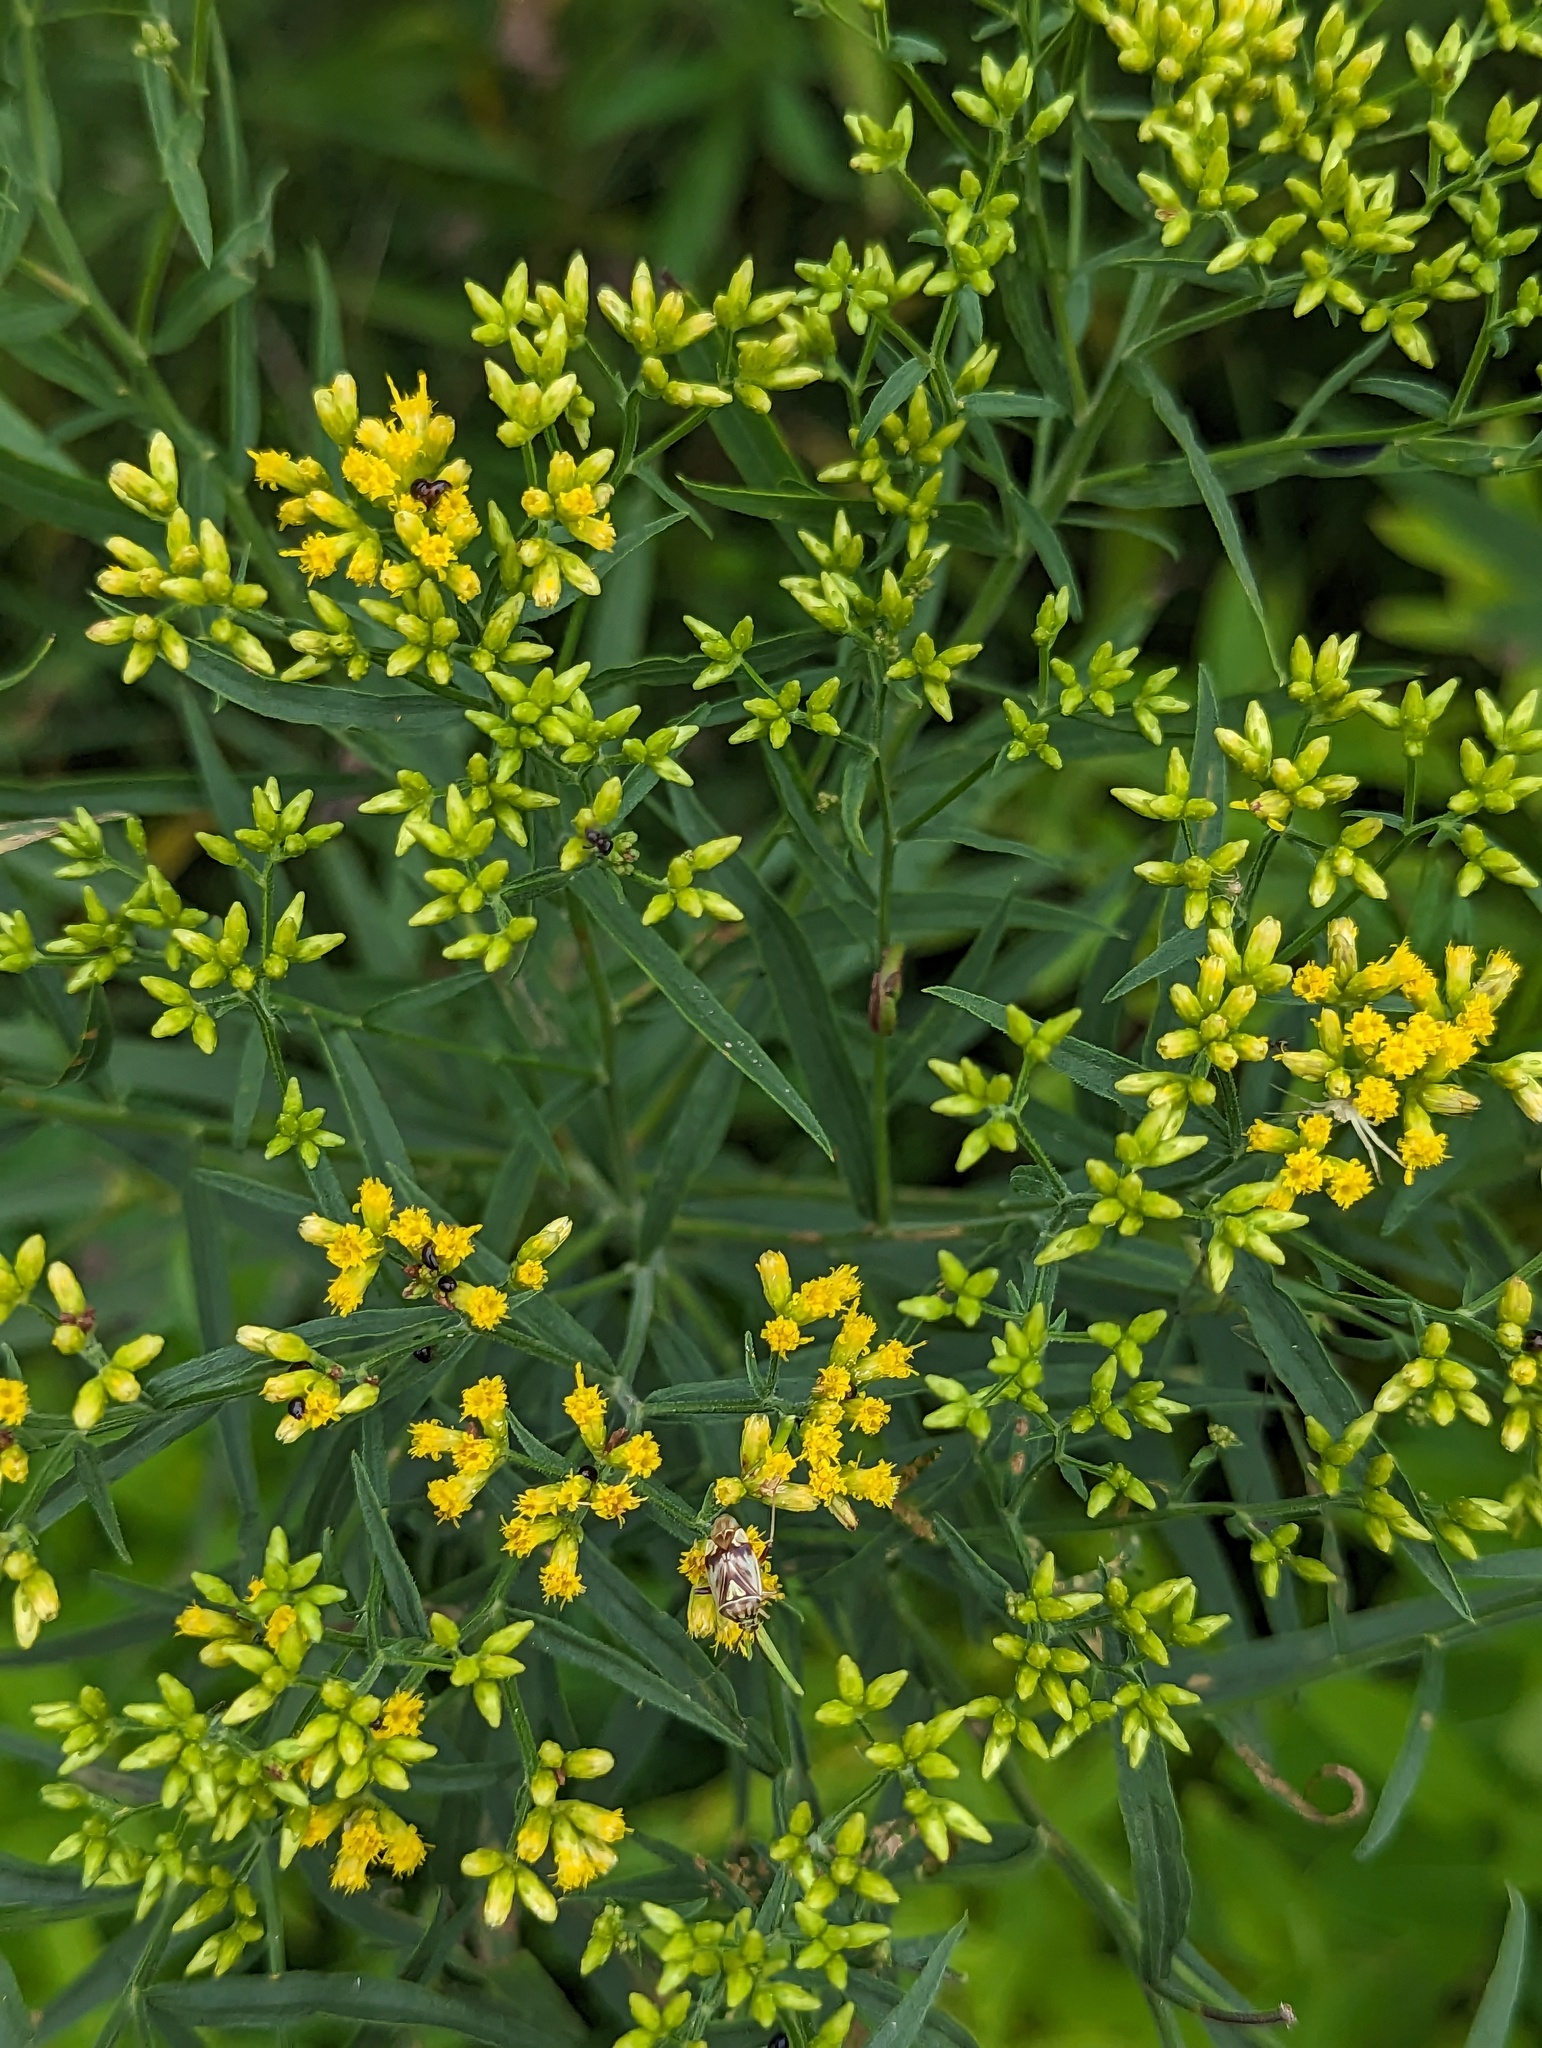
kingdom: Plantae
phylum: Tracheophyta
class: Magnoliopsida
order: Asterales
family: Asteraceae
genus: Euthamia
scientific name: Euthamia graminifolia
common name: Common goldentop
